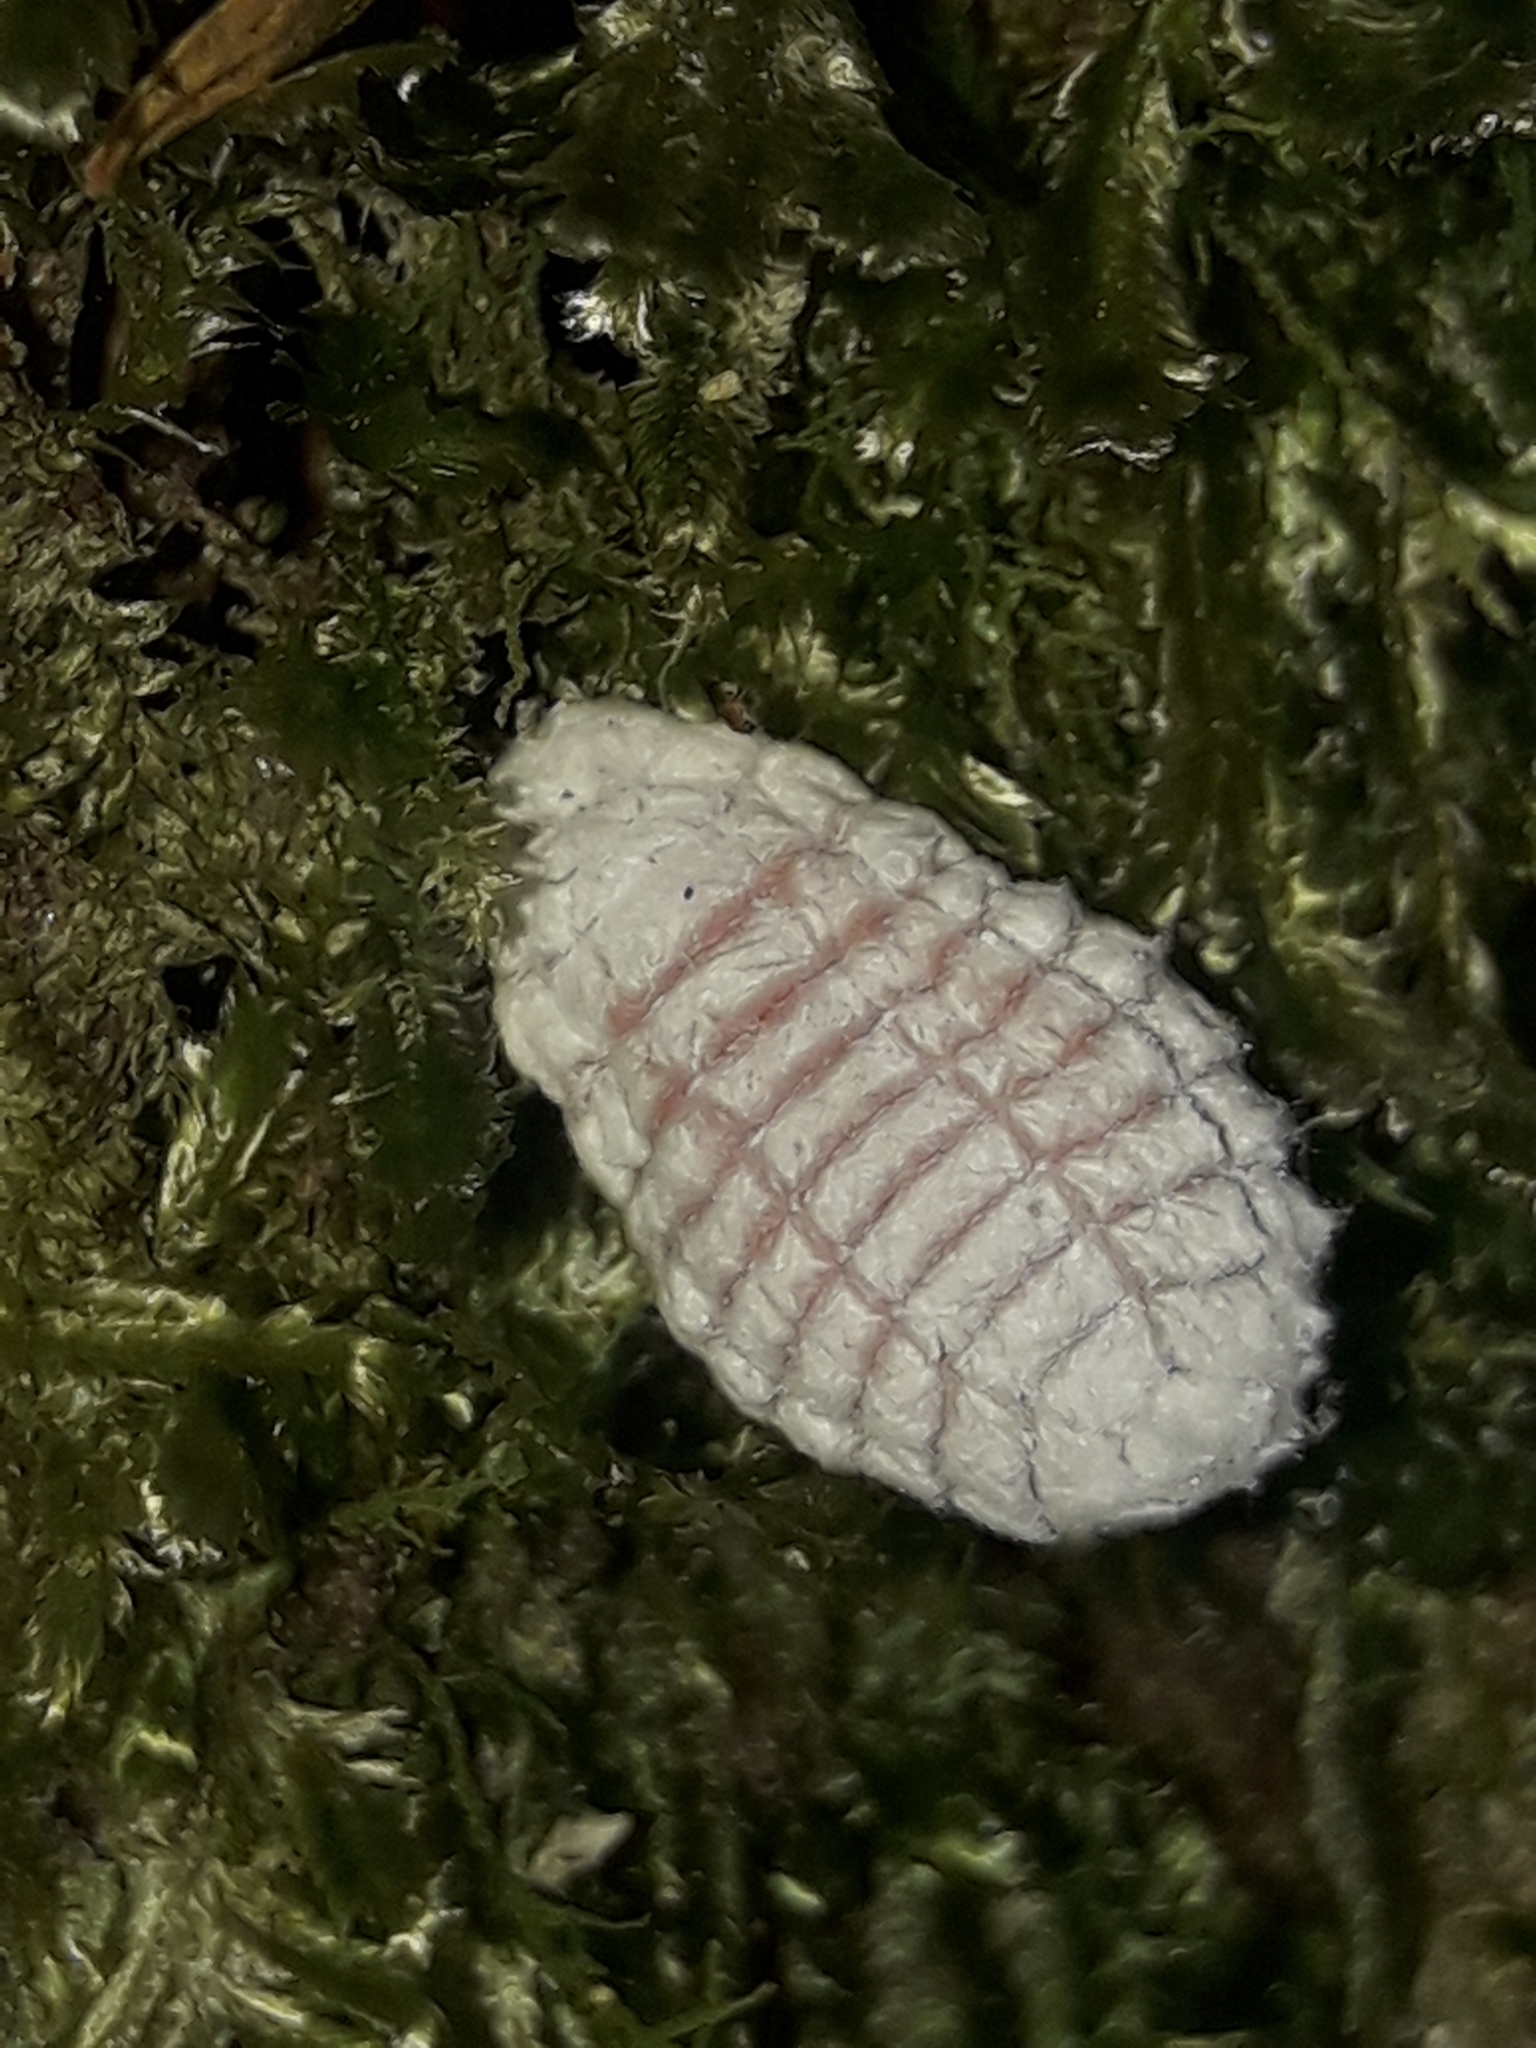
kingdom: Animalia
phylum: Arthropoda
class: Insecta
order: Hemiptera
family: Margarodidae
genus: Coelostomidia
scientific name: Coelostomidia zealandica
